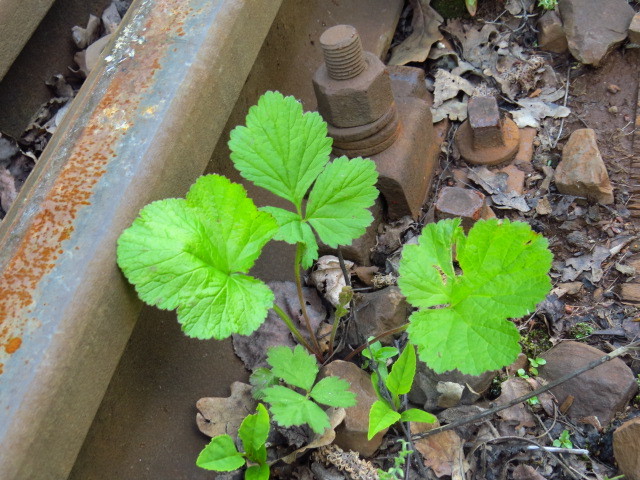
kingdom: Plantae
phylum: Tracheophyta
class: Magnoliopsida
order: Rosales
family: Rosaceae
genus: Geum
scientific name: Geum urbanum
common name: Wood avens
